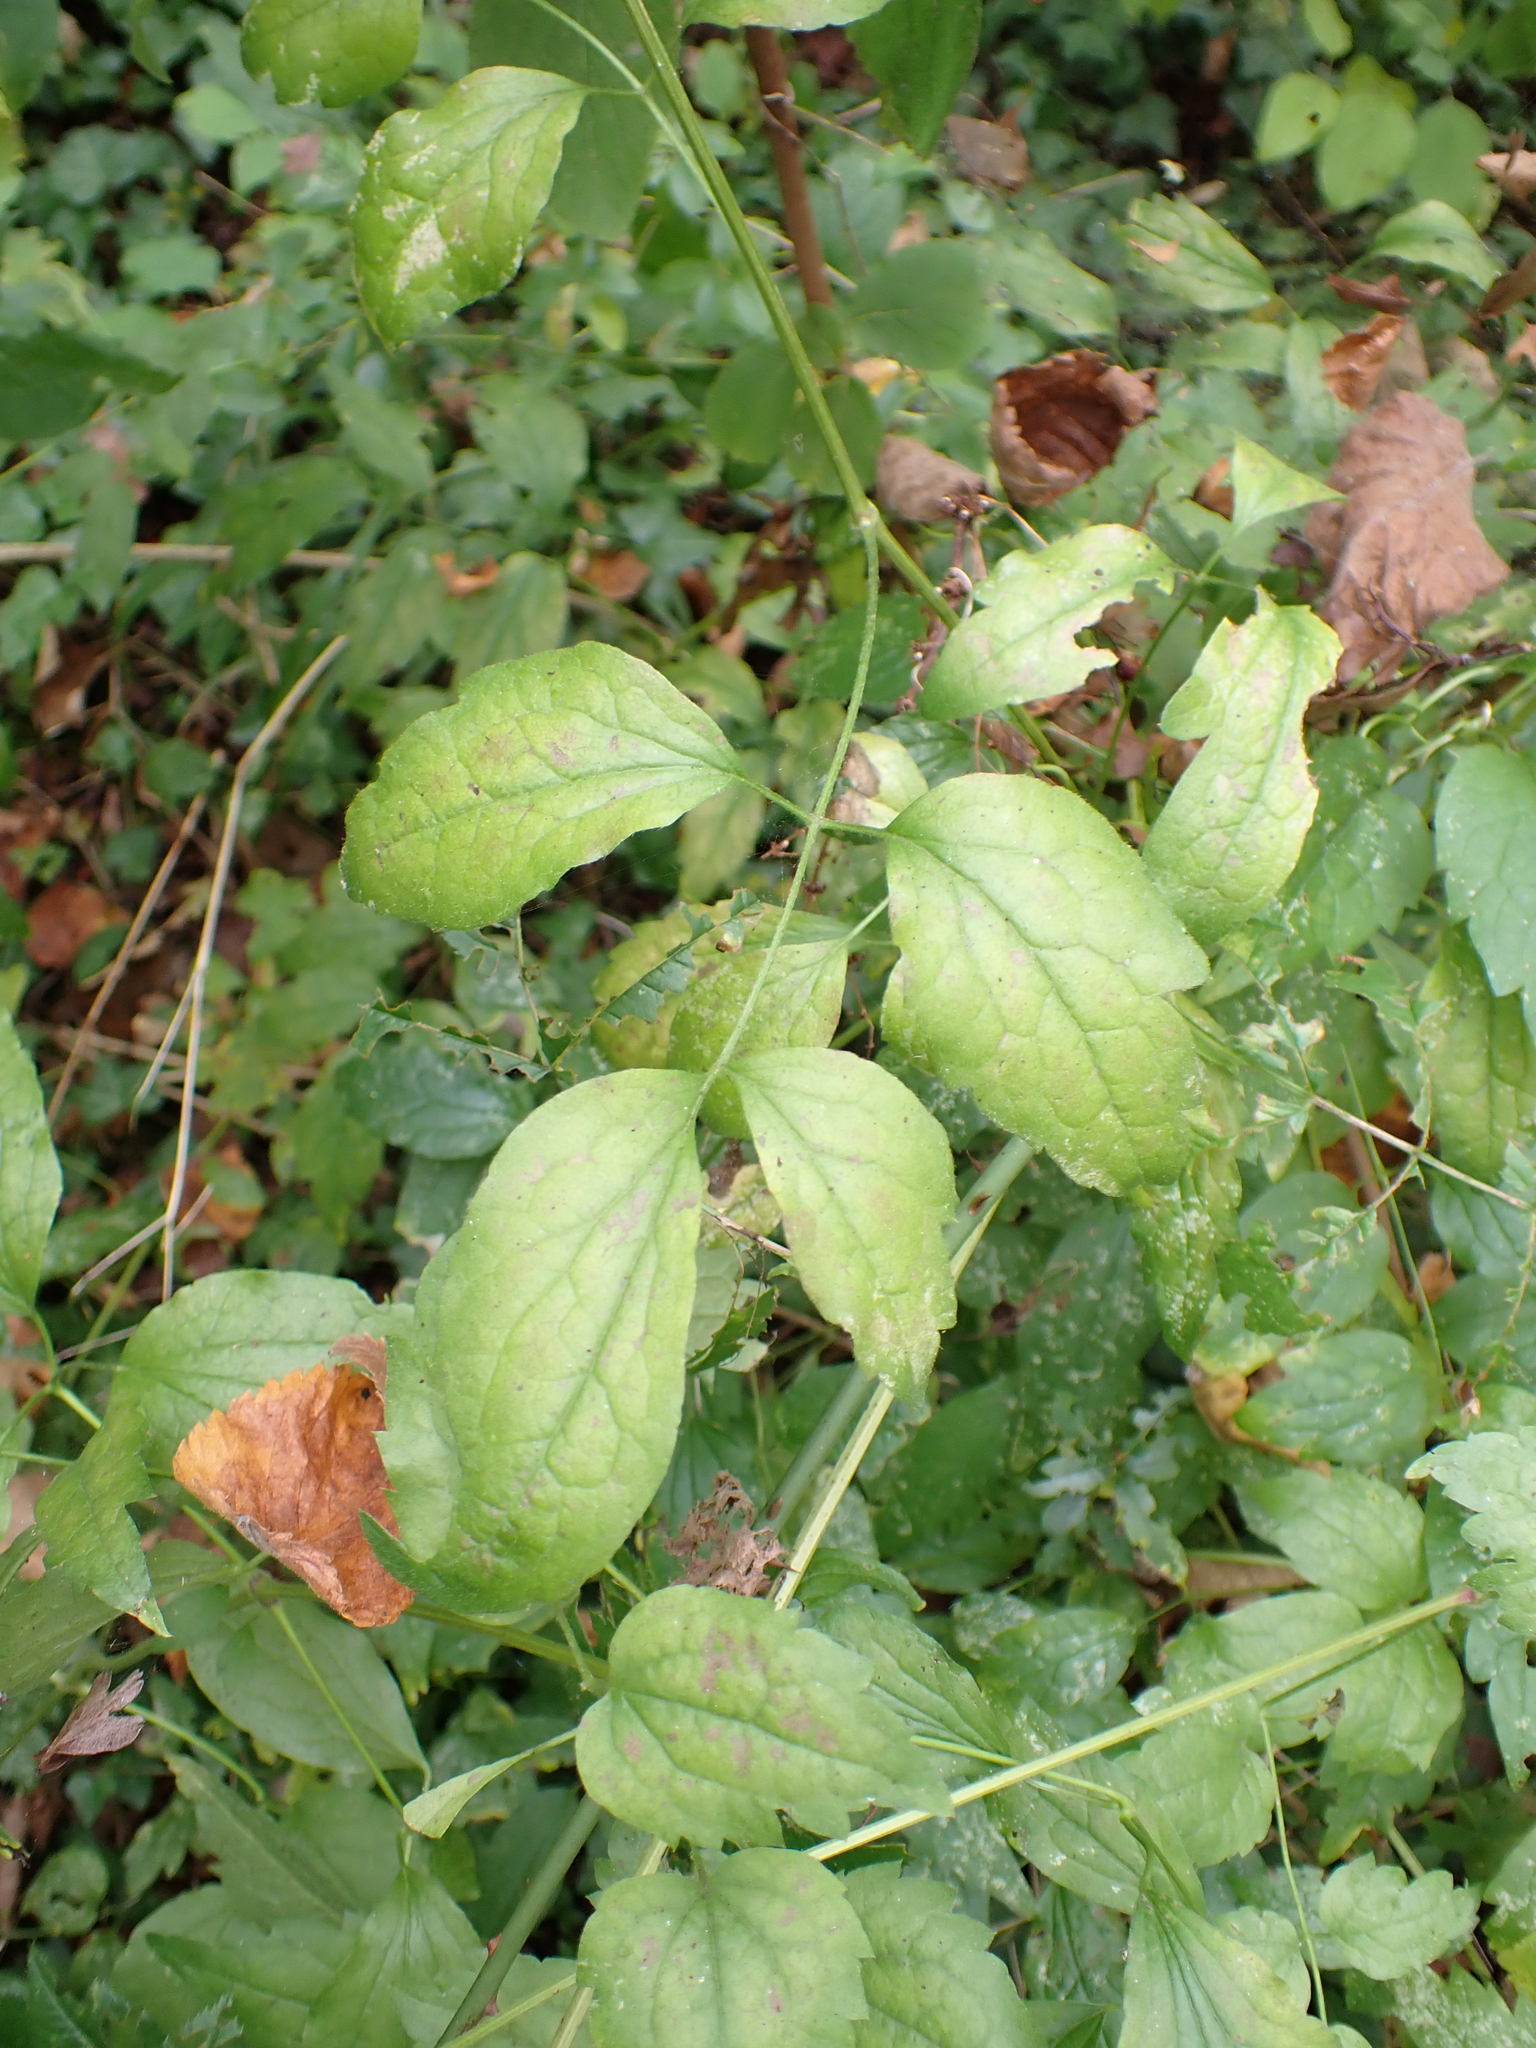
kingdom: Plantae
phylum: Tracheophyta
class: Magnoliopsida
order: Ranunculales
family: Ranunculaceae
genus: Clematis
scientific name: Clematis vitalba
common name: Evergreen clematis
